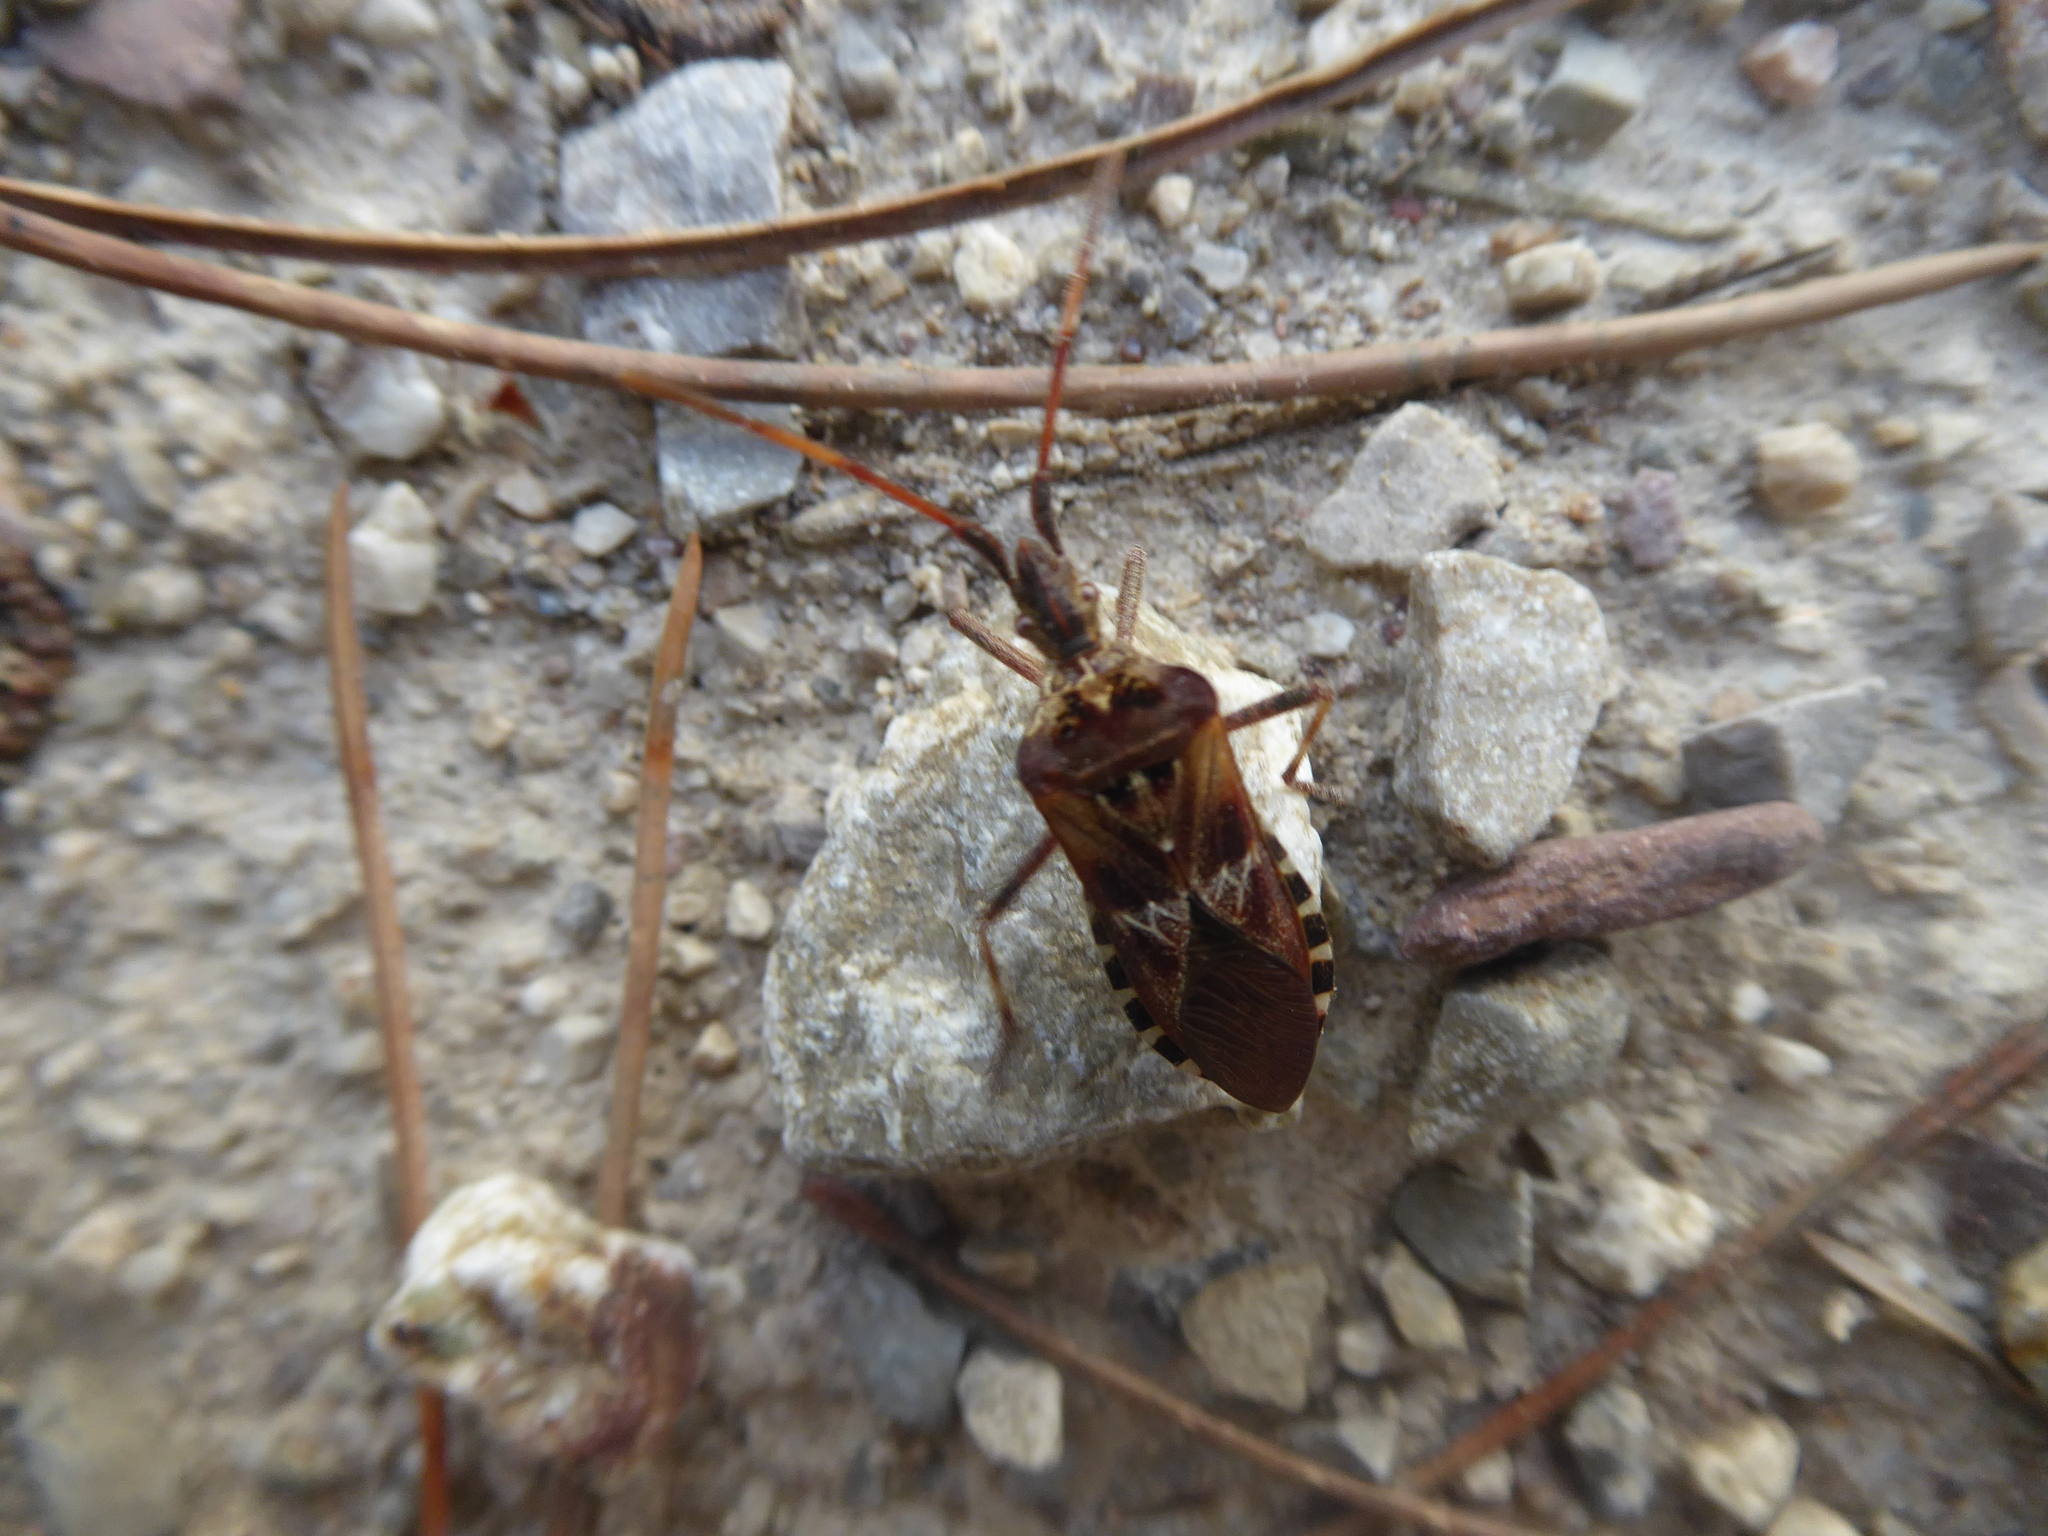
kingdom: Animalia
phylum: Arthropoda
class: Insecta
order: Hemiptera
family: Coreidae
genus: Leptoglossus
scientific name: Leptoglossus occidentalis
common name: Western conifer-seed bug
